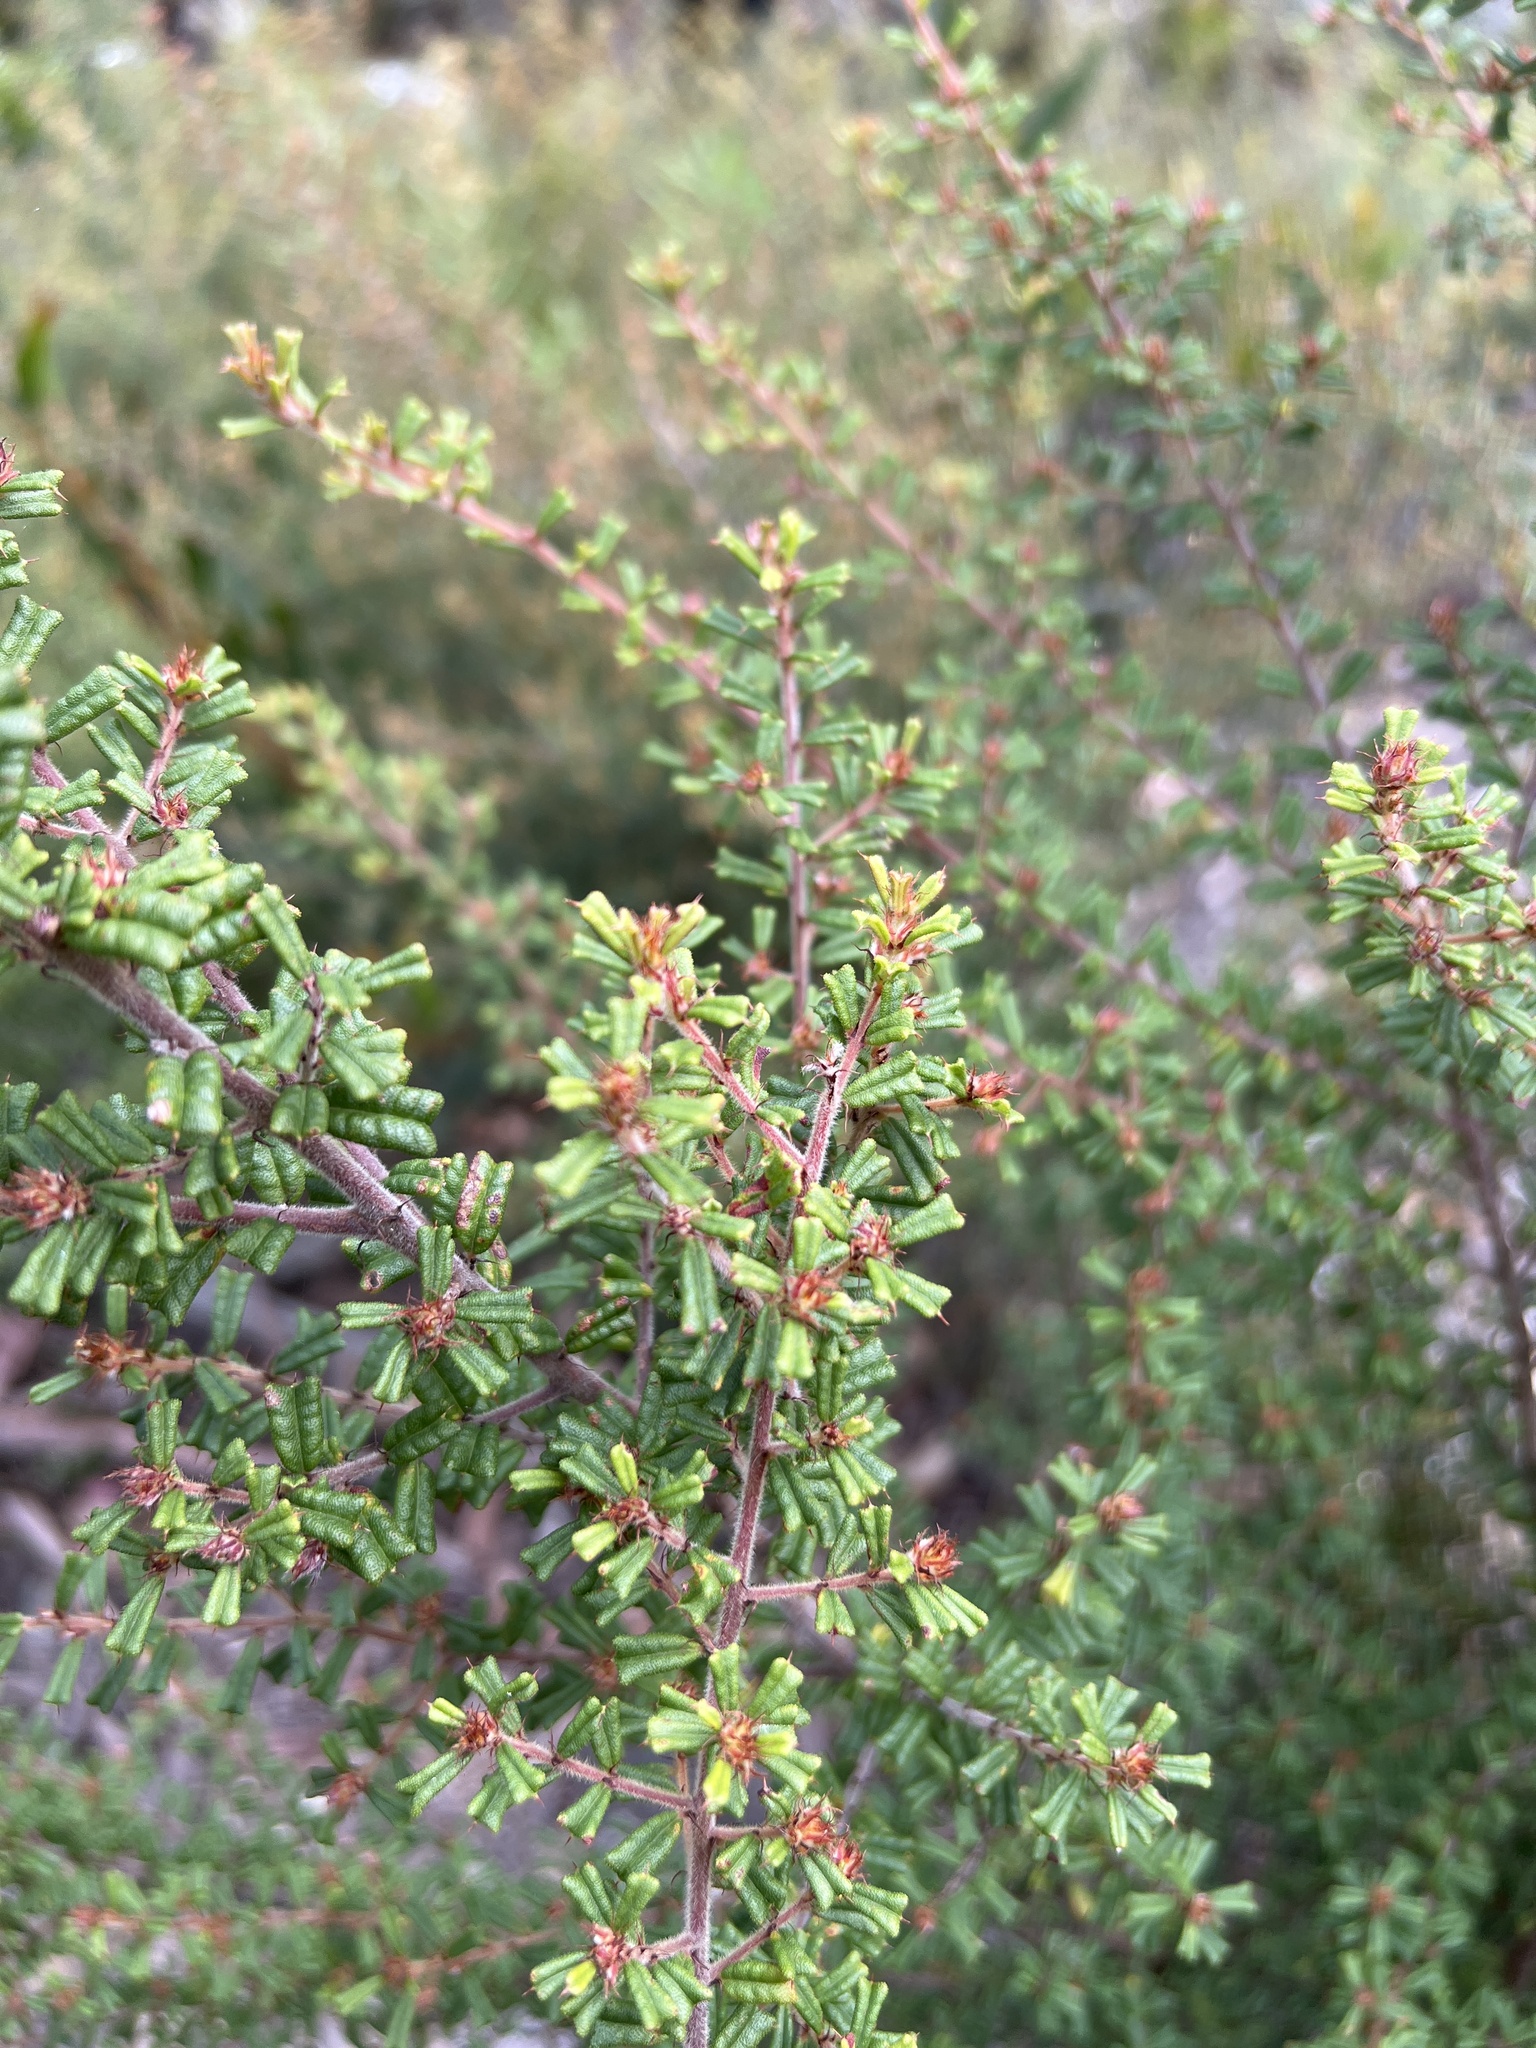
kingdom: Plantae
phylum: Tracheophyta
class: Magnoliopsida
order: Fabales
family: Fabaceae
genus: Pultenaea
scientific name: Pultenaea scabra
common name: Rough bush-pea
